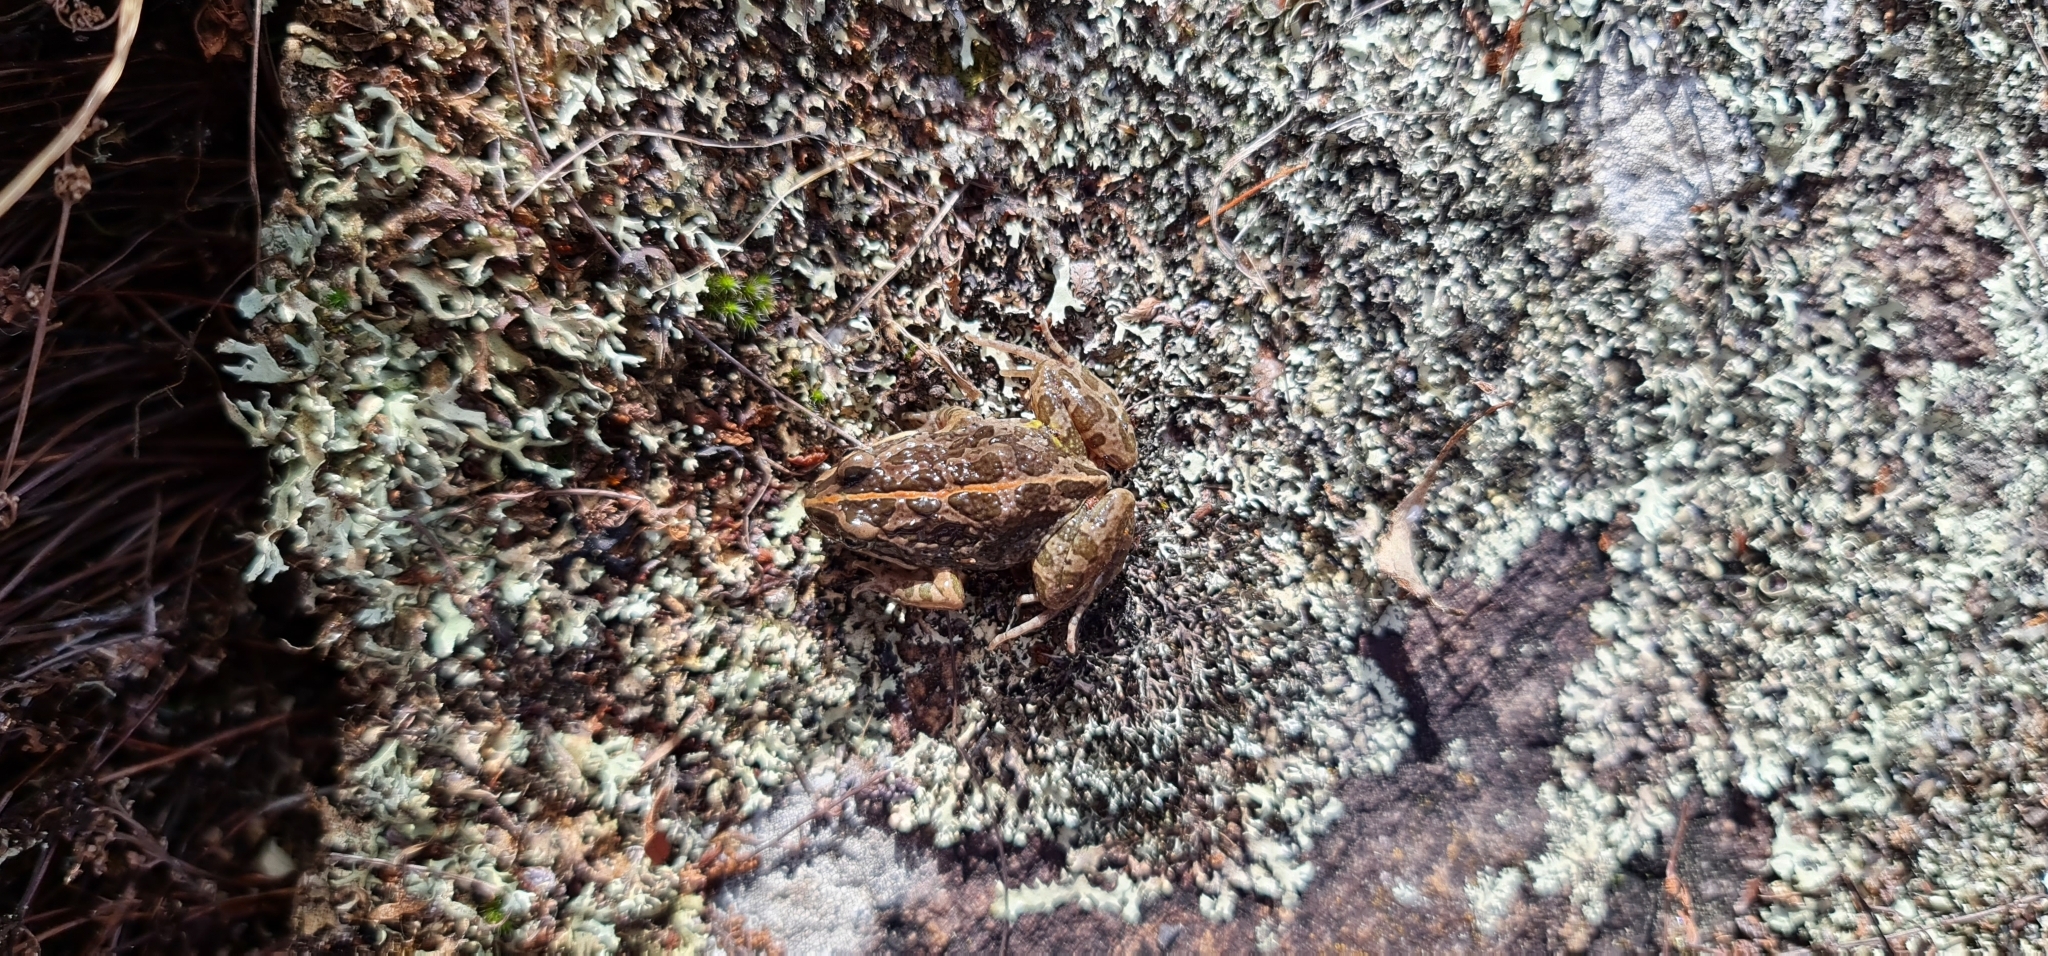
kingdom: Animalia
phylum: Chordata
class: Amphibia
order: Anura
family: Limnodynastidae
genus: Limnodynastes
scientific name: Limnodynastes tasmaniensis
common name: Spotted marsh frog
